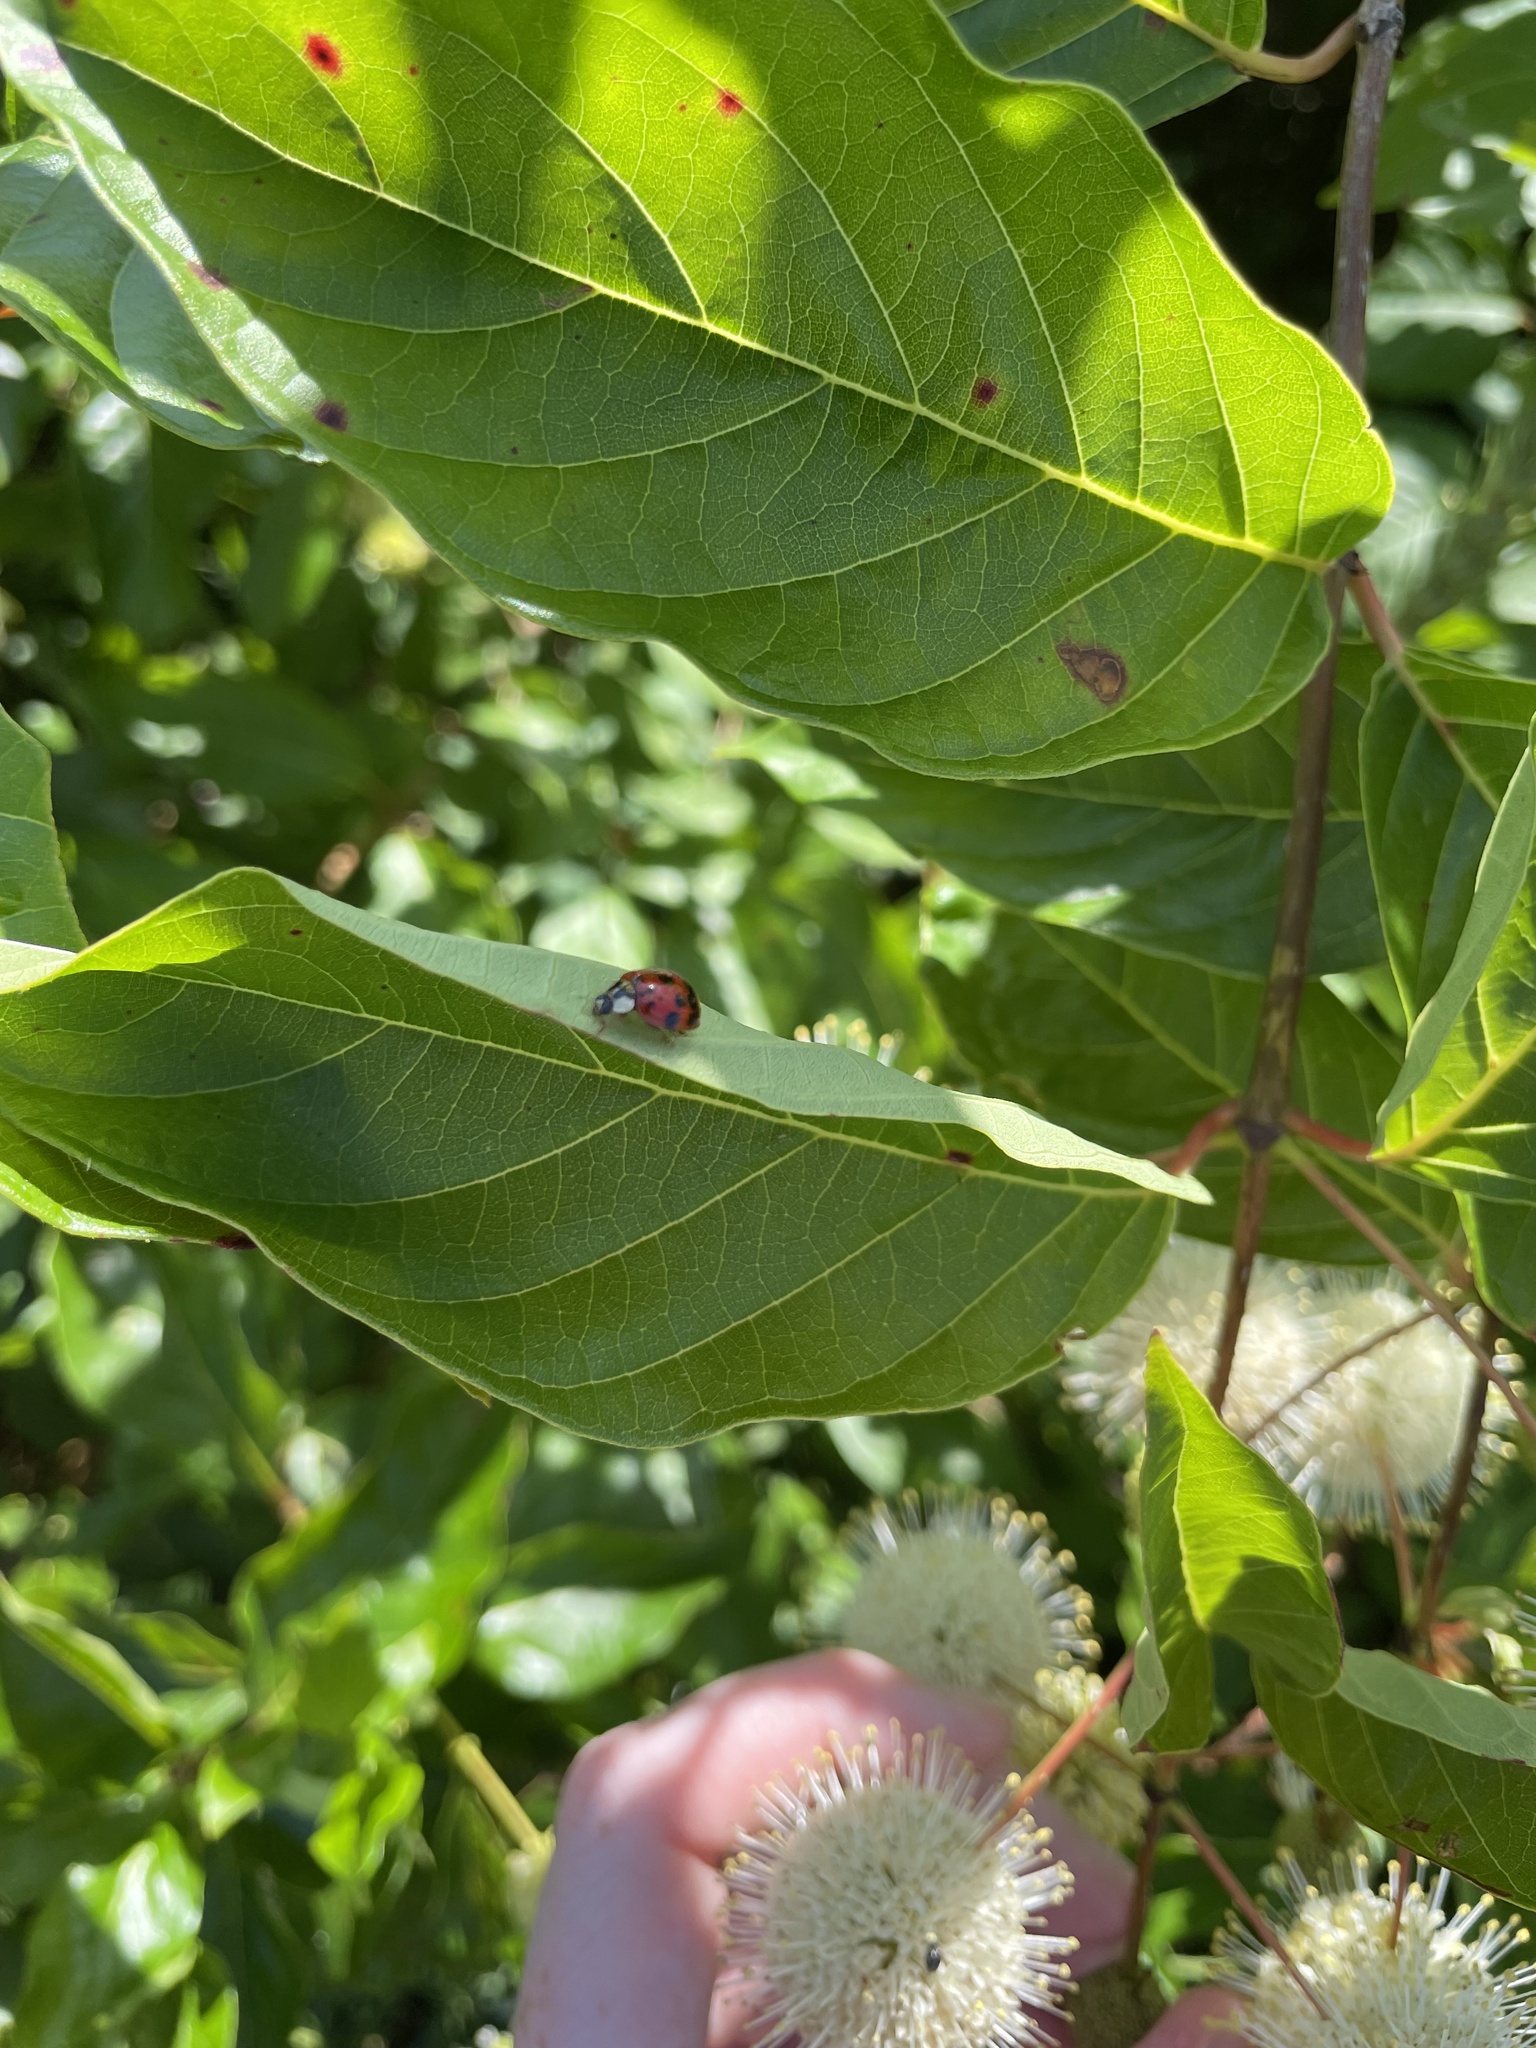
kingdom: Animalia
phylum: Arthropoda
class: Insecta
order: Coleoptera
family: Coccinellidae
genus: Harmonia
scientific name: Harmonia axyridis
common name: Harlequin ladybird
